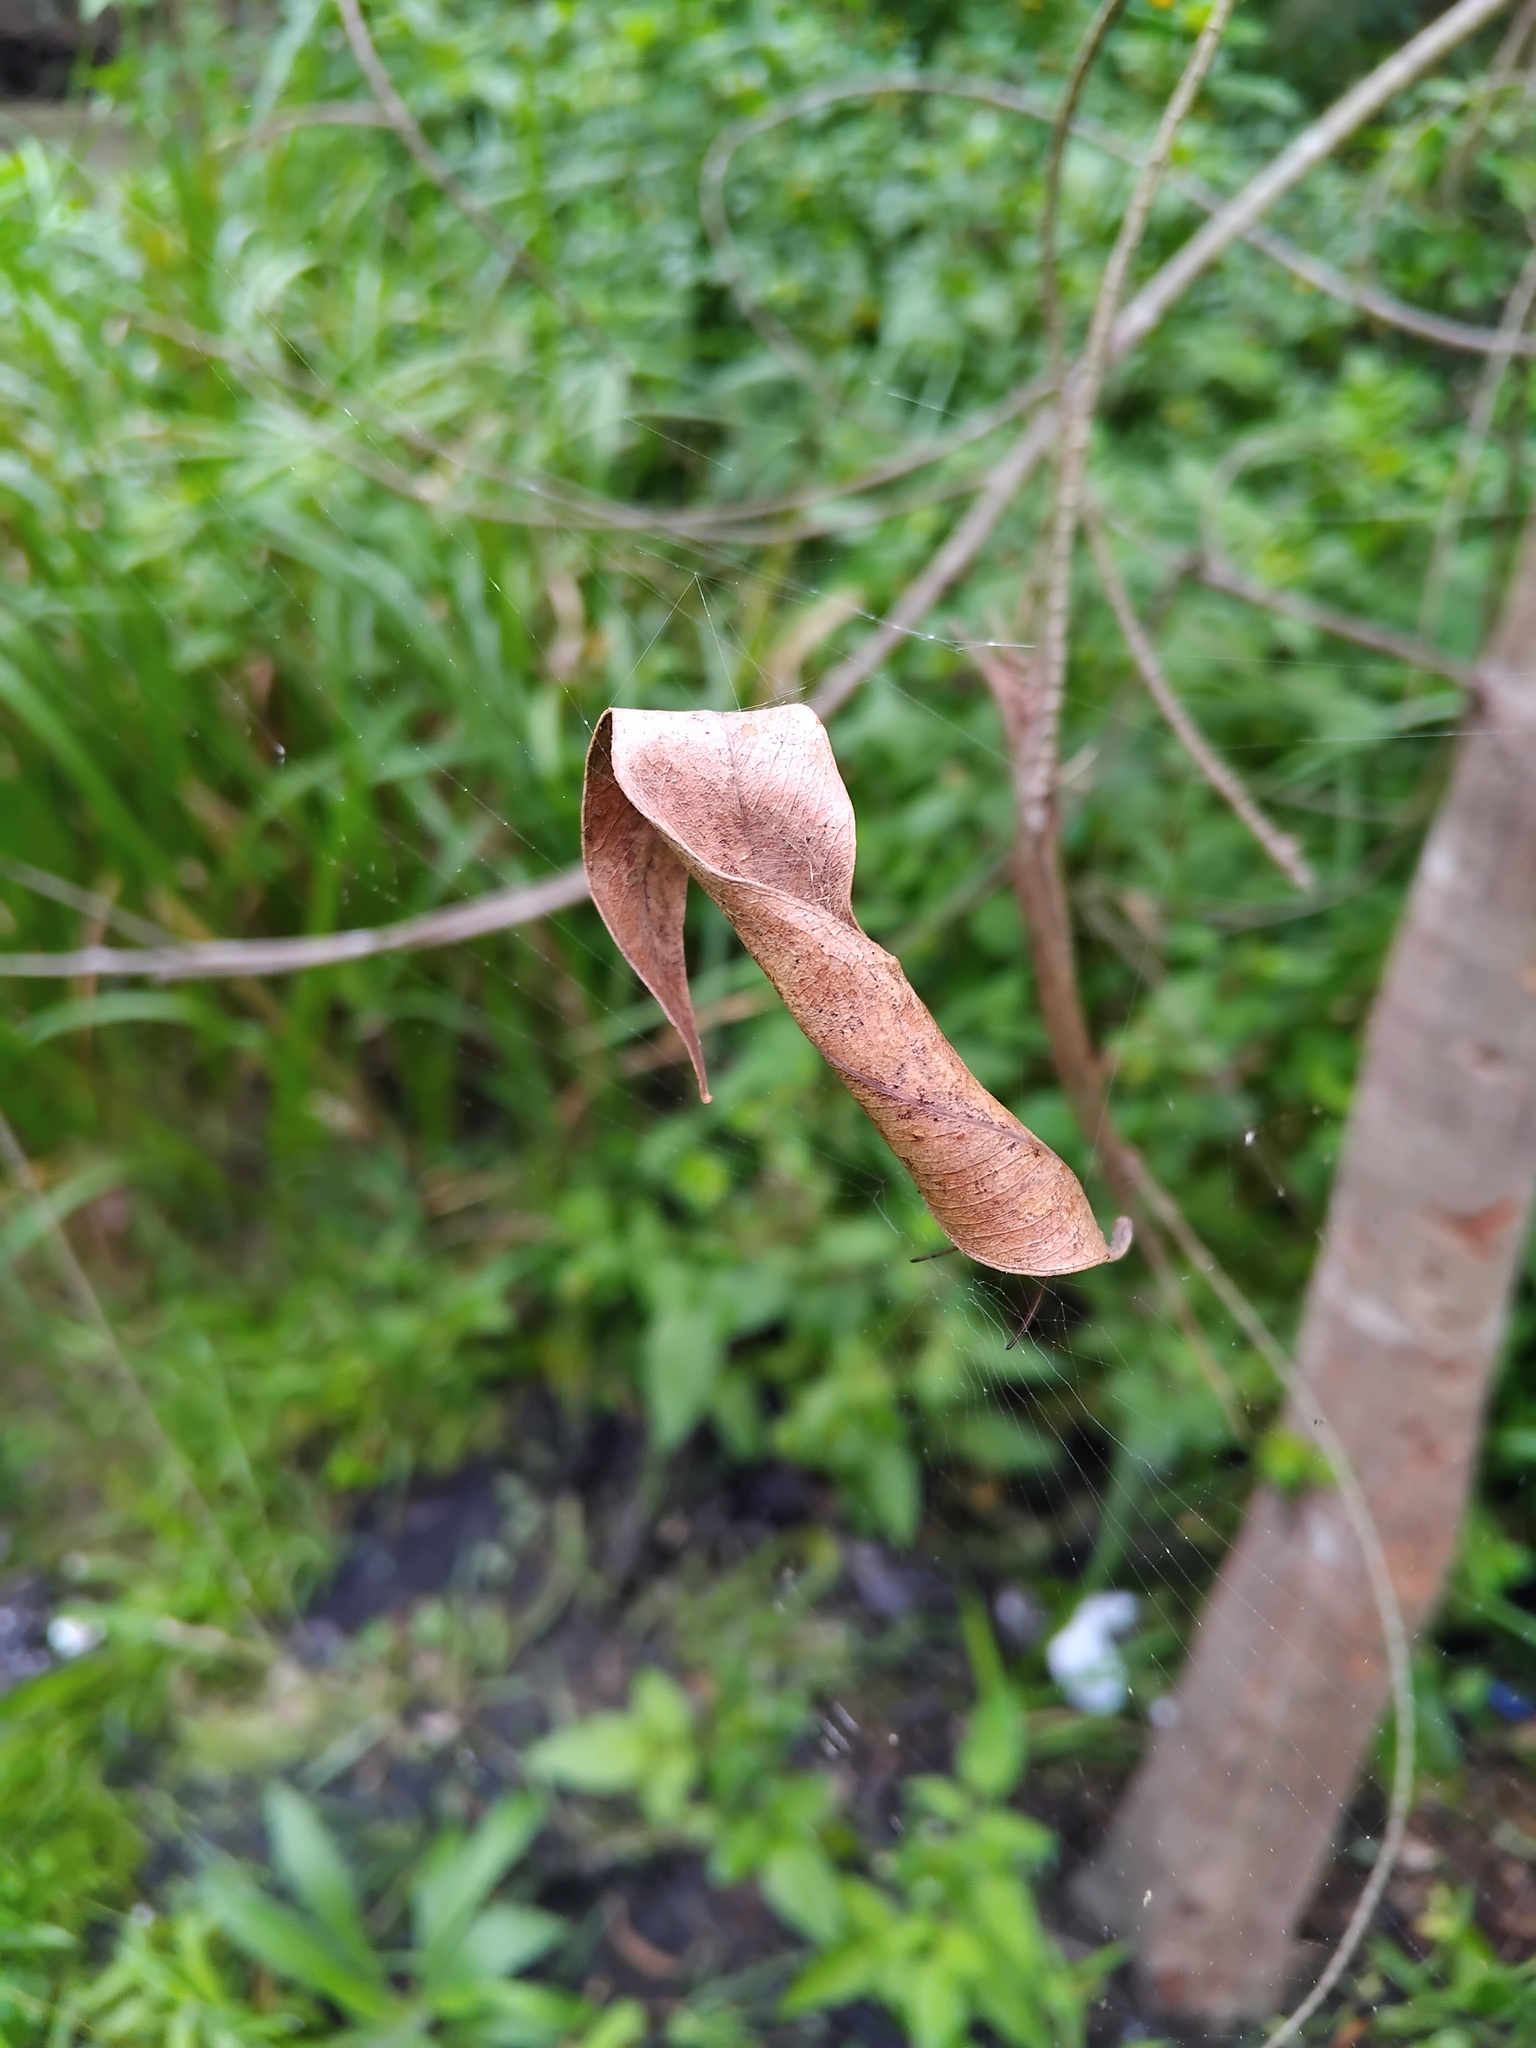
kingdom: Animalia
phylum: Arthropoda
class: Arachnida
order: Araneae
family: Araneidae
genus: Phonognatha
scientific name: Phonognatha graeffei
